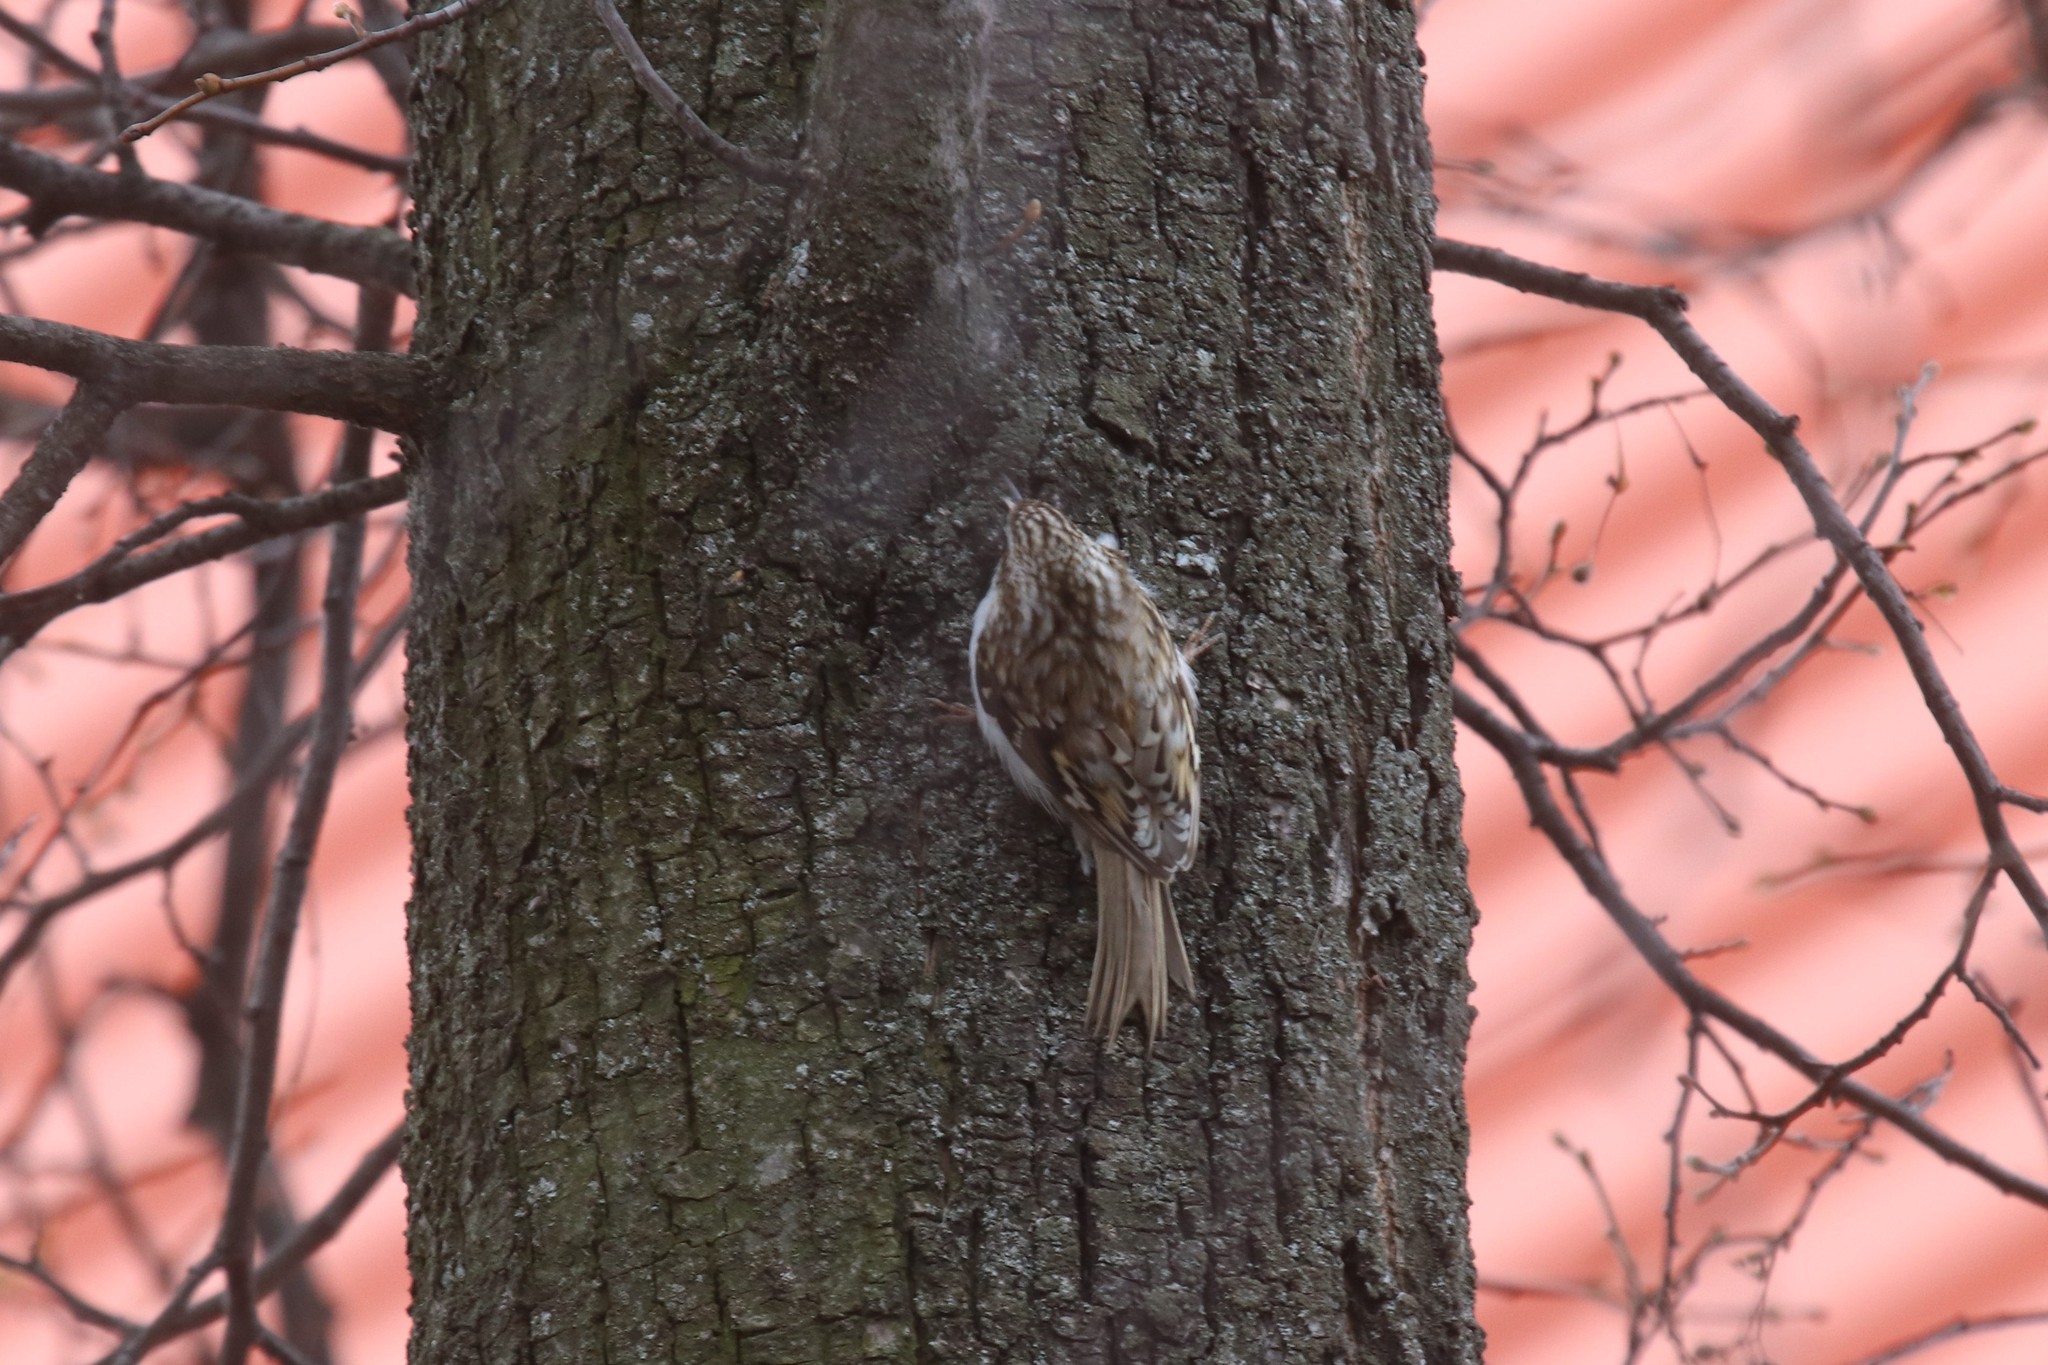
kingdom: Animalia
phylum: Chordata
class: Aves
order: Passeriformes
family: Certhiidae
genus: Certhia
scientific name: Certhia familiaris
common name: Eurasian treecreeper
